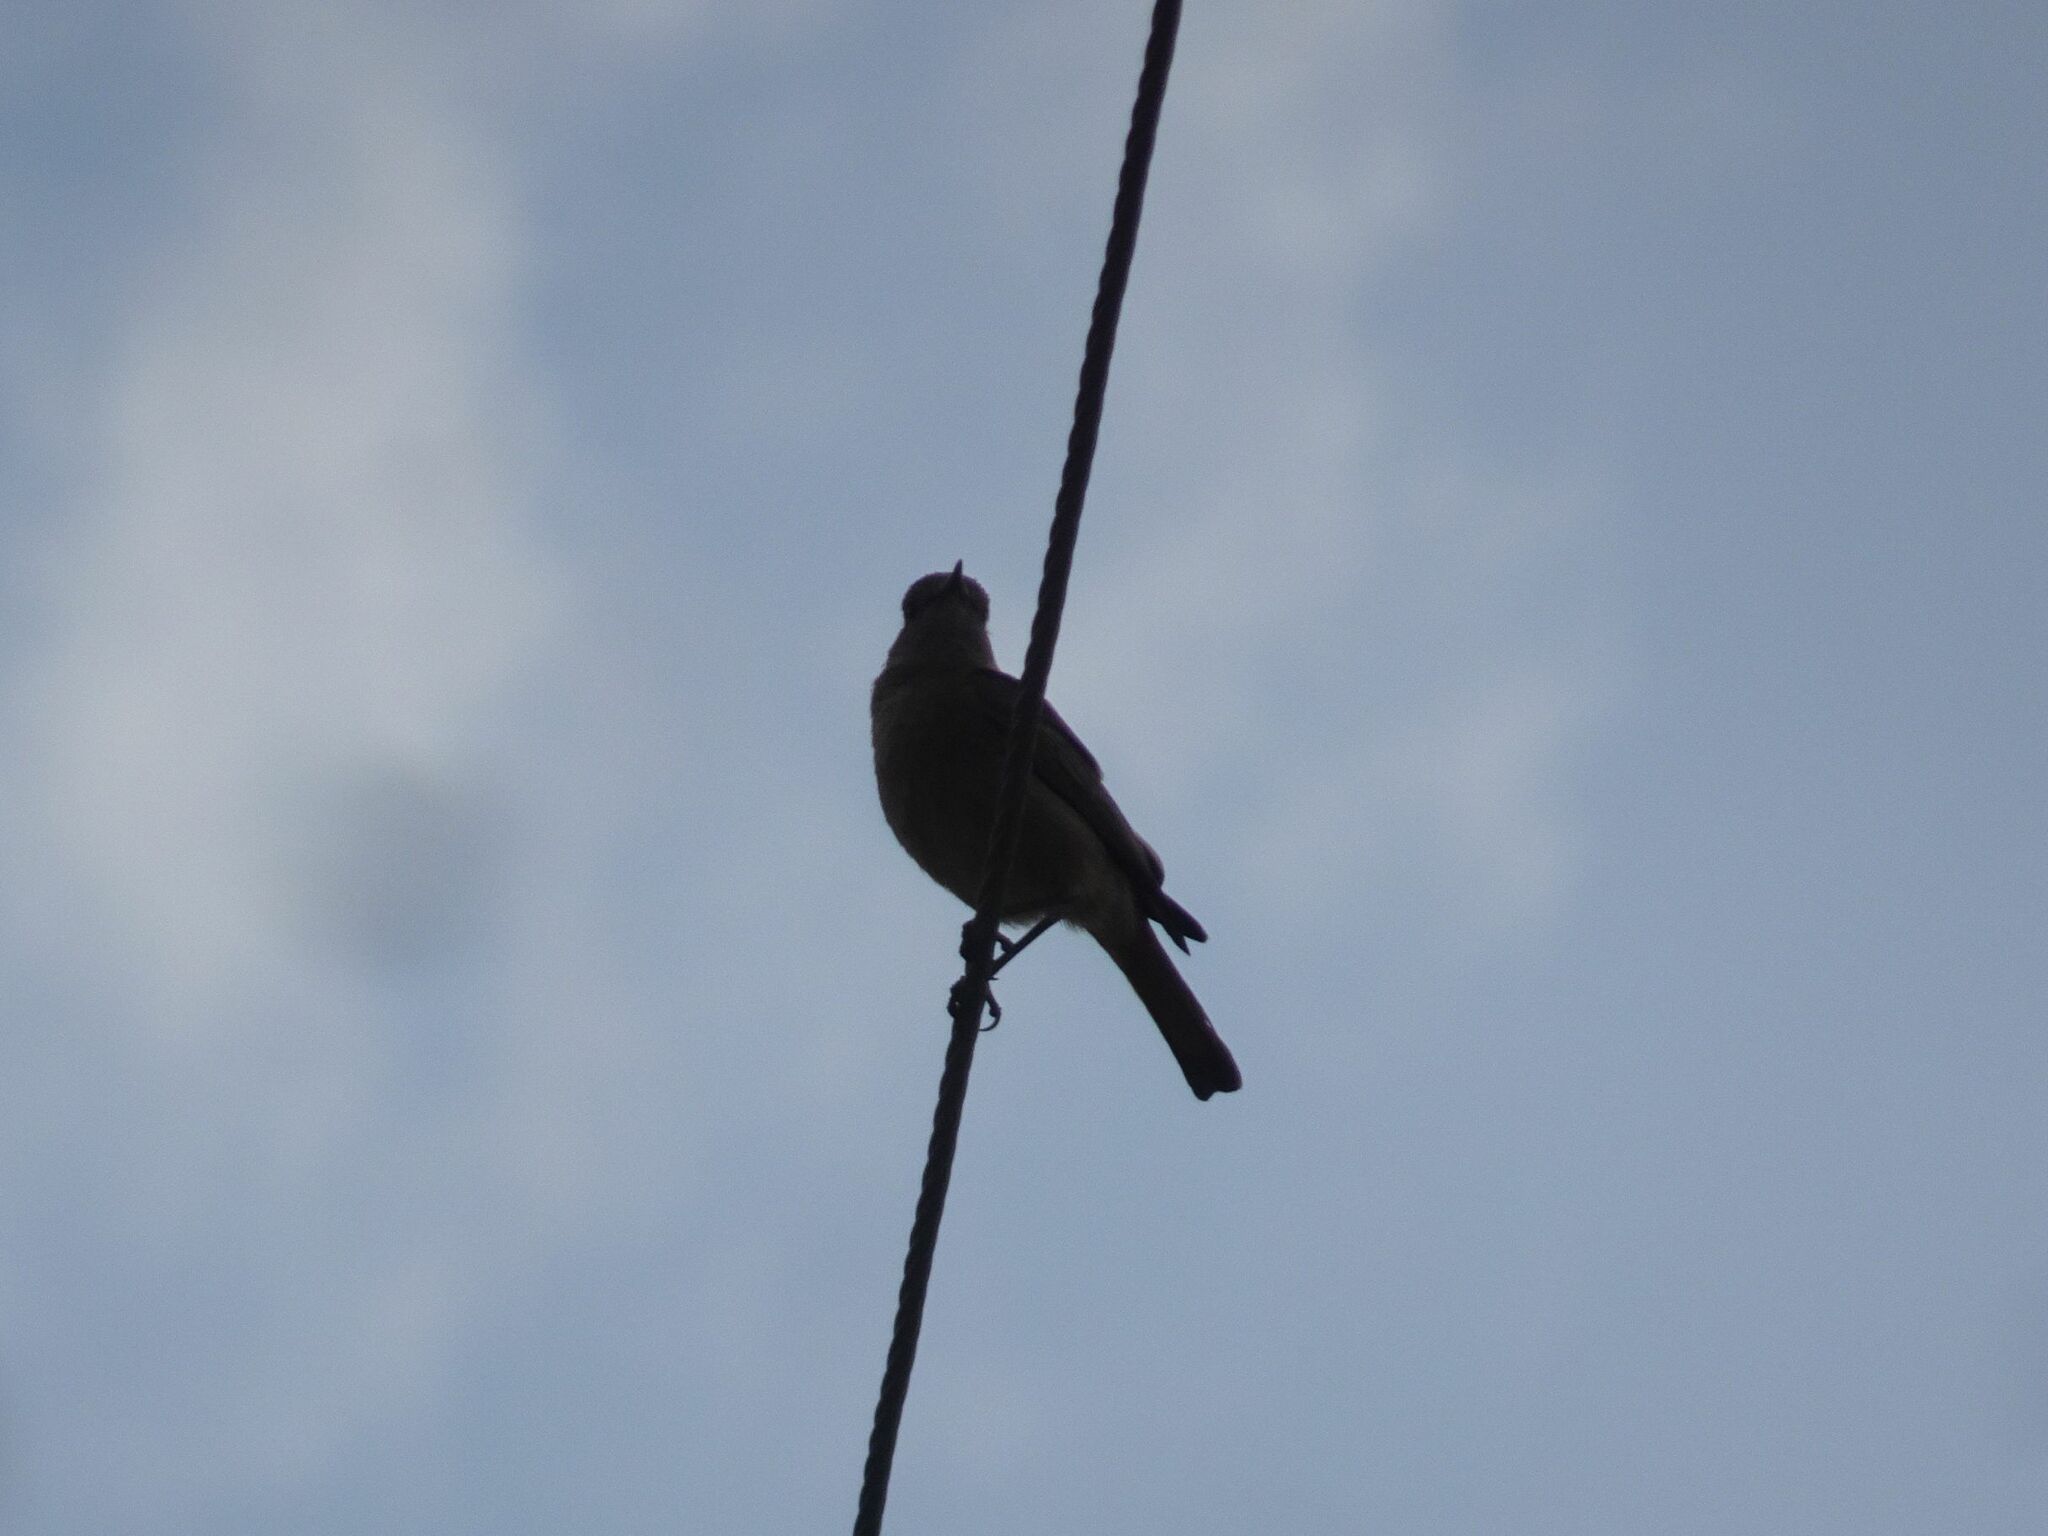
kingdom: Animalia
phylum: Chordata
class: Aves
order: Passeriformes
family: Muscicapidae
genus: Oenanthe
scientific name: Oenanthe familiaris
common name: Familiar chat
